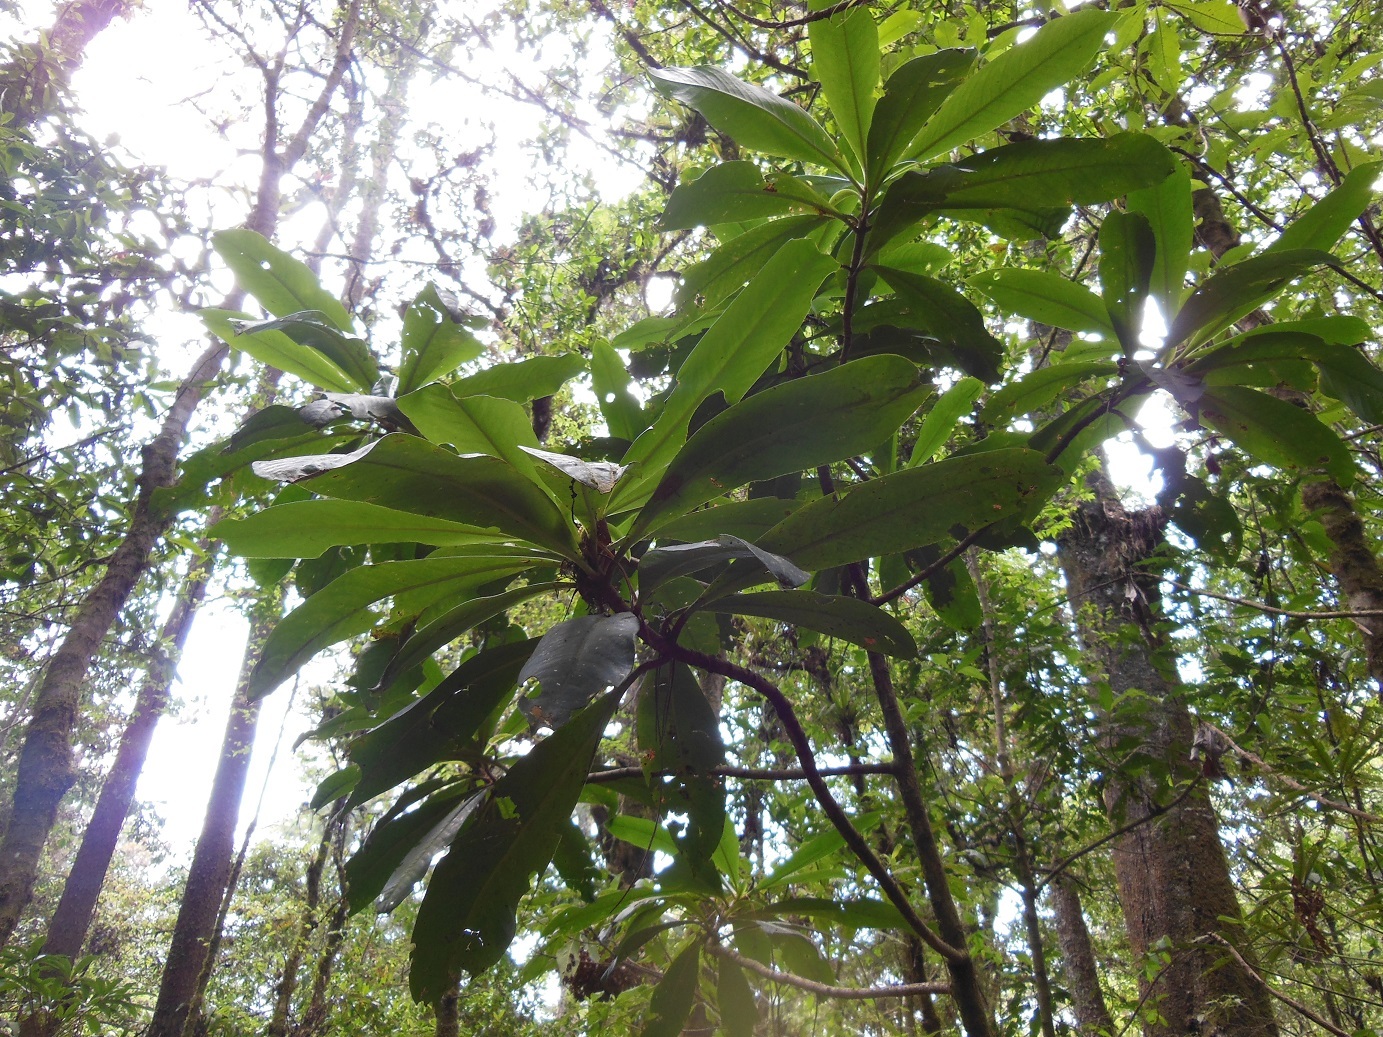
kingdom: Plantae
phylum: Tracheophyta
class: Magnoliopsida
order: Ericales
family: Primulaceae
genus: Ardisia
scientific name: Ardisia venosa
